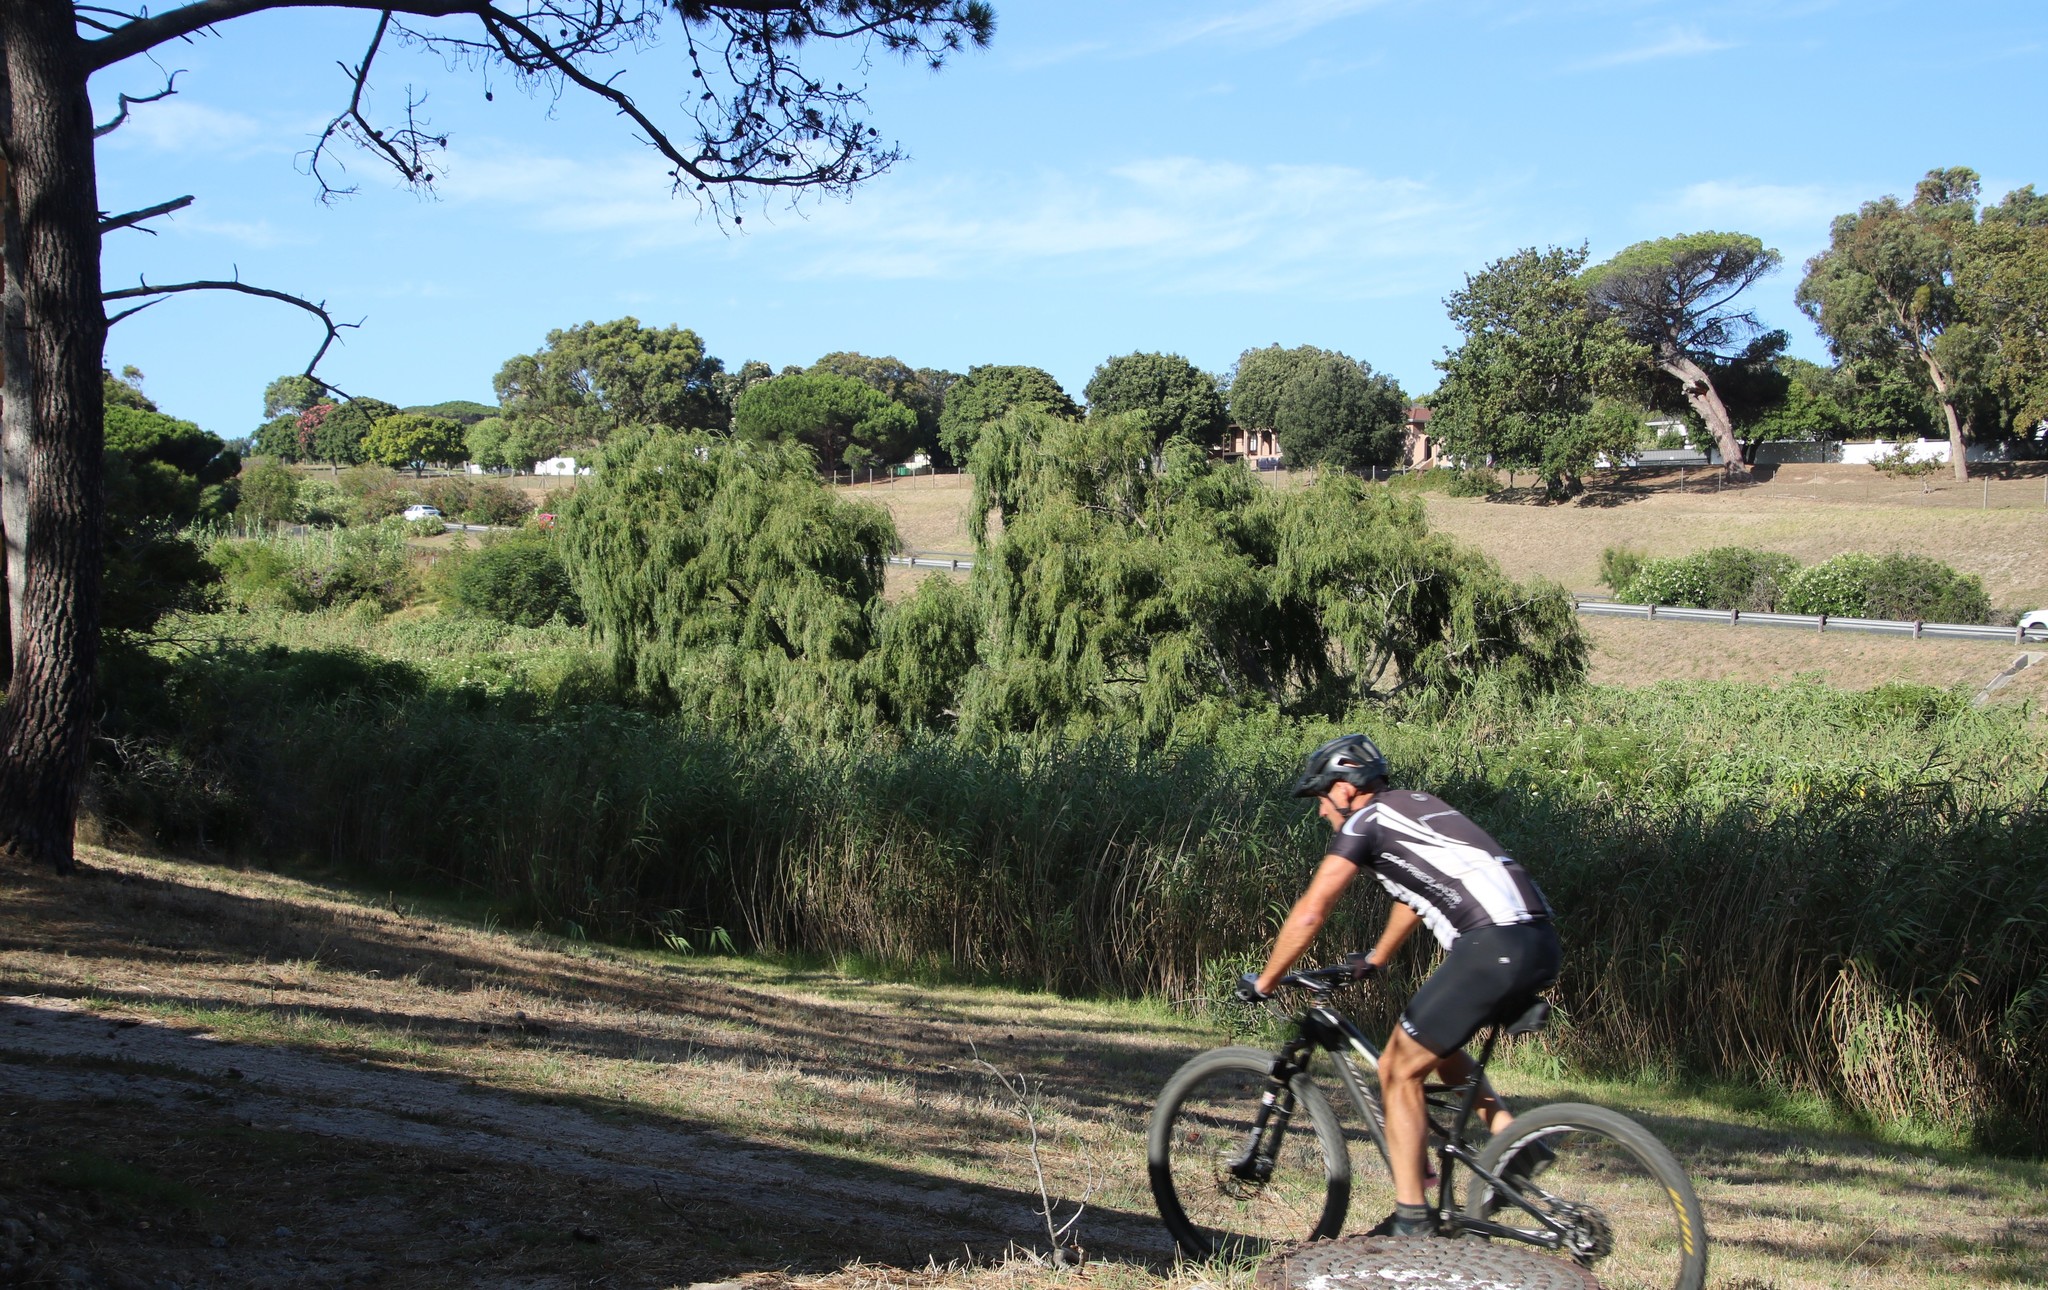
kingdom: Plantae
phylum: Tracheophyta
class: Magnoliopsida
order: Malpighiales
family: Salicaceae
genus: Salix
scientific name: Salix babylonica
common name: Weeping willow
